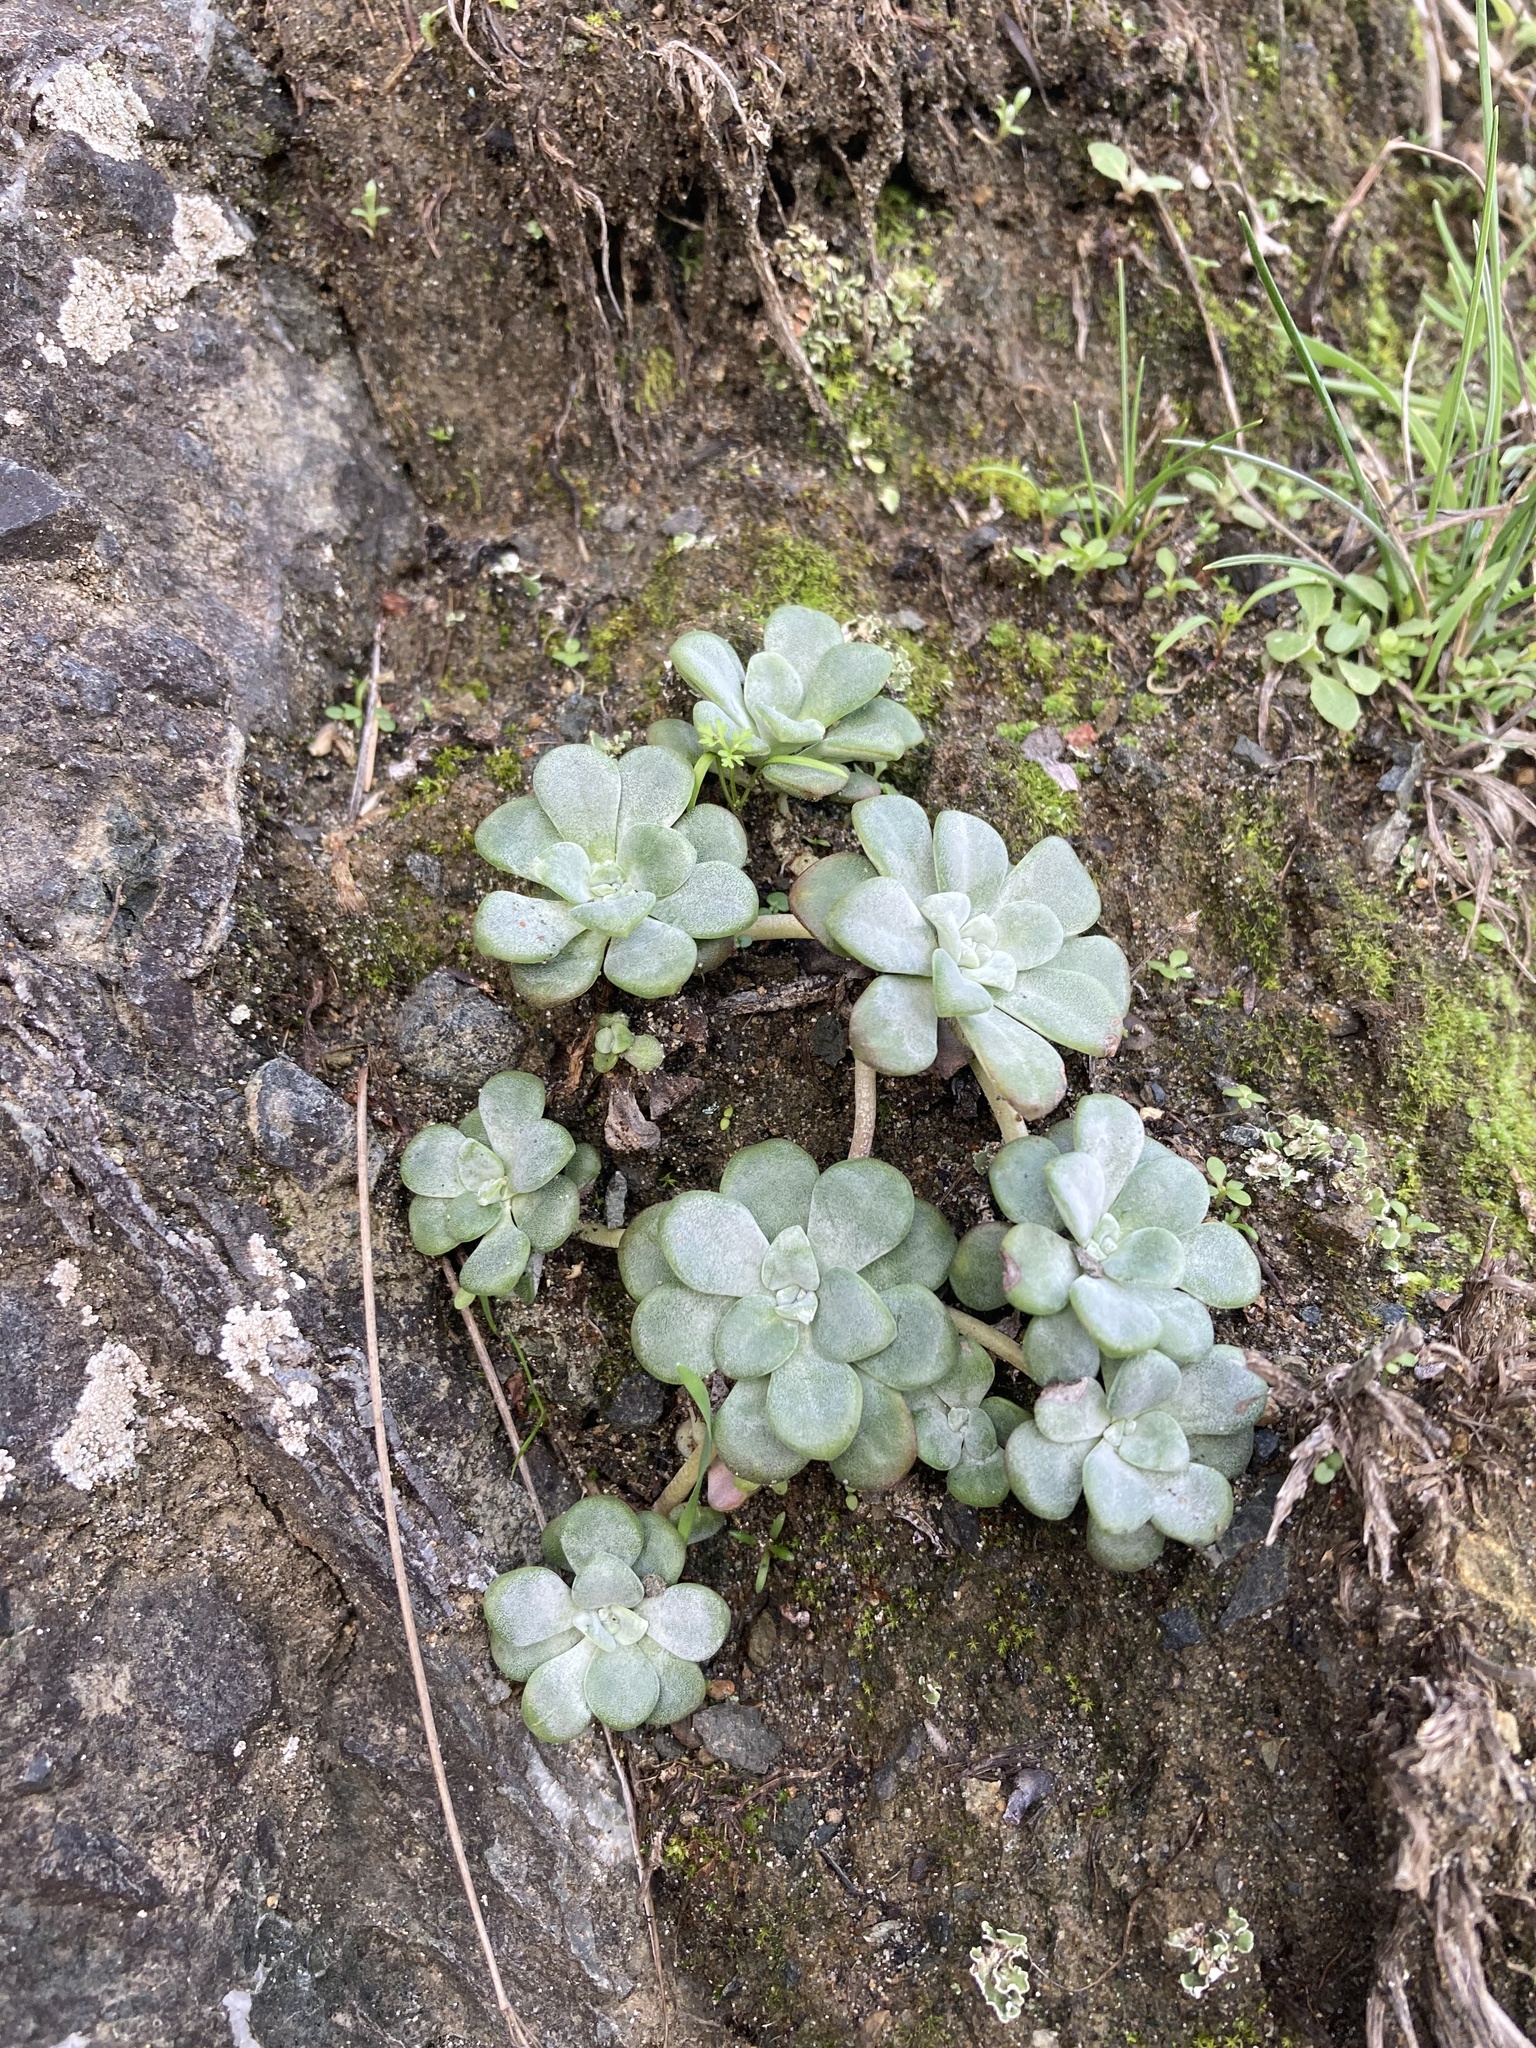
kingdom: Plantae
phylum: Tracheophyta
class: Magnoliopsida
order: Saxifragales
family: Crassulaceae
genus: Sedum
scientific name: Sedum spathulifolium
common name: Colorado stonecrop
